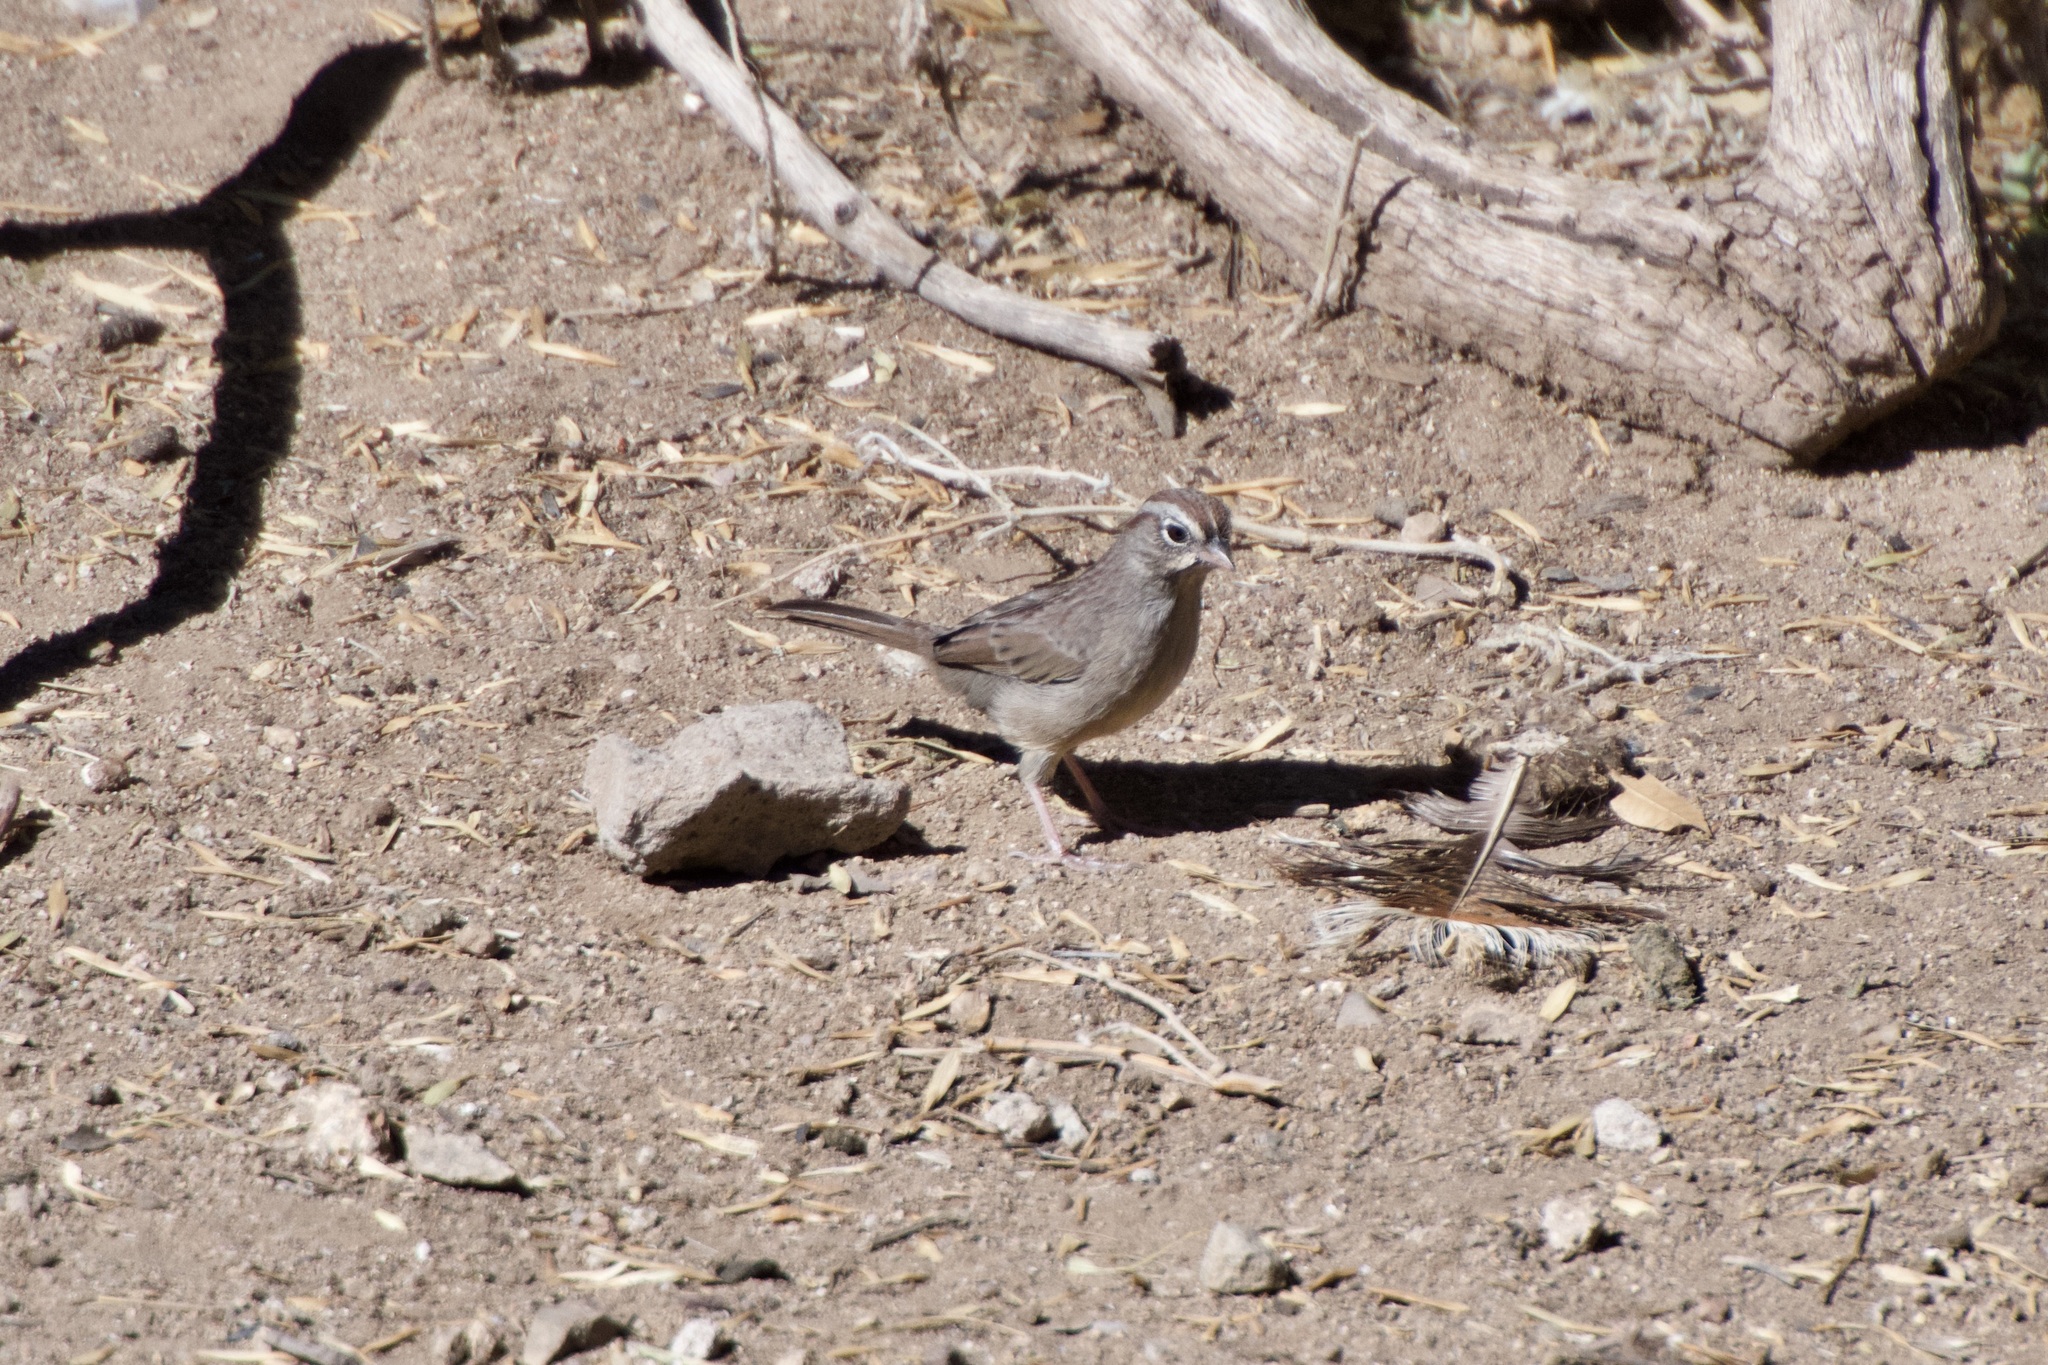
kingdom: Animalia
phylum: Chordata
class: Aves
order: Passeriformes
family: Passerellidae
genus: Aimophila
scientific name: Aimophila ruficeps
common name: Rufous-crowned sparrow
